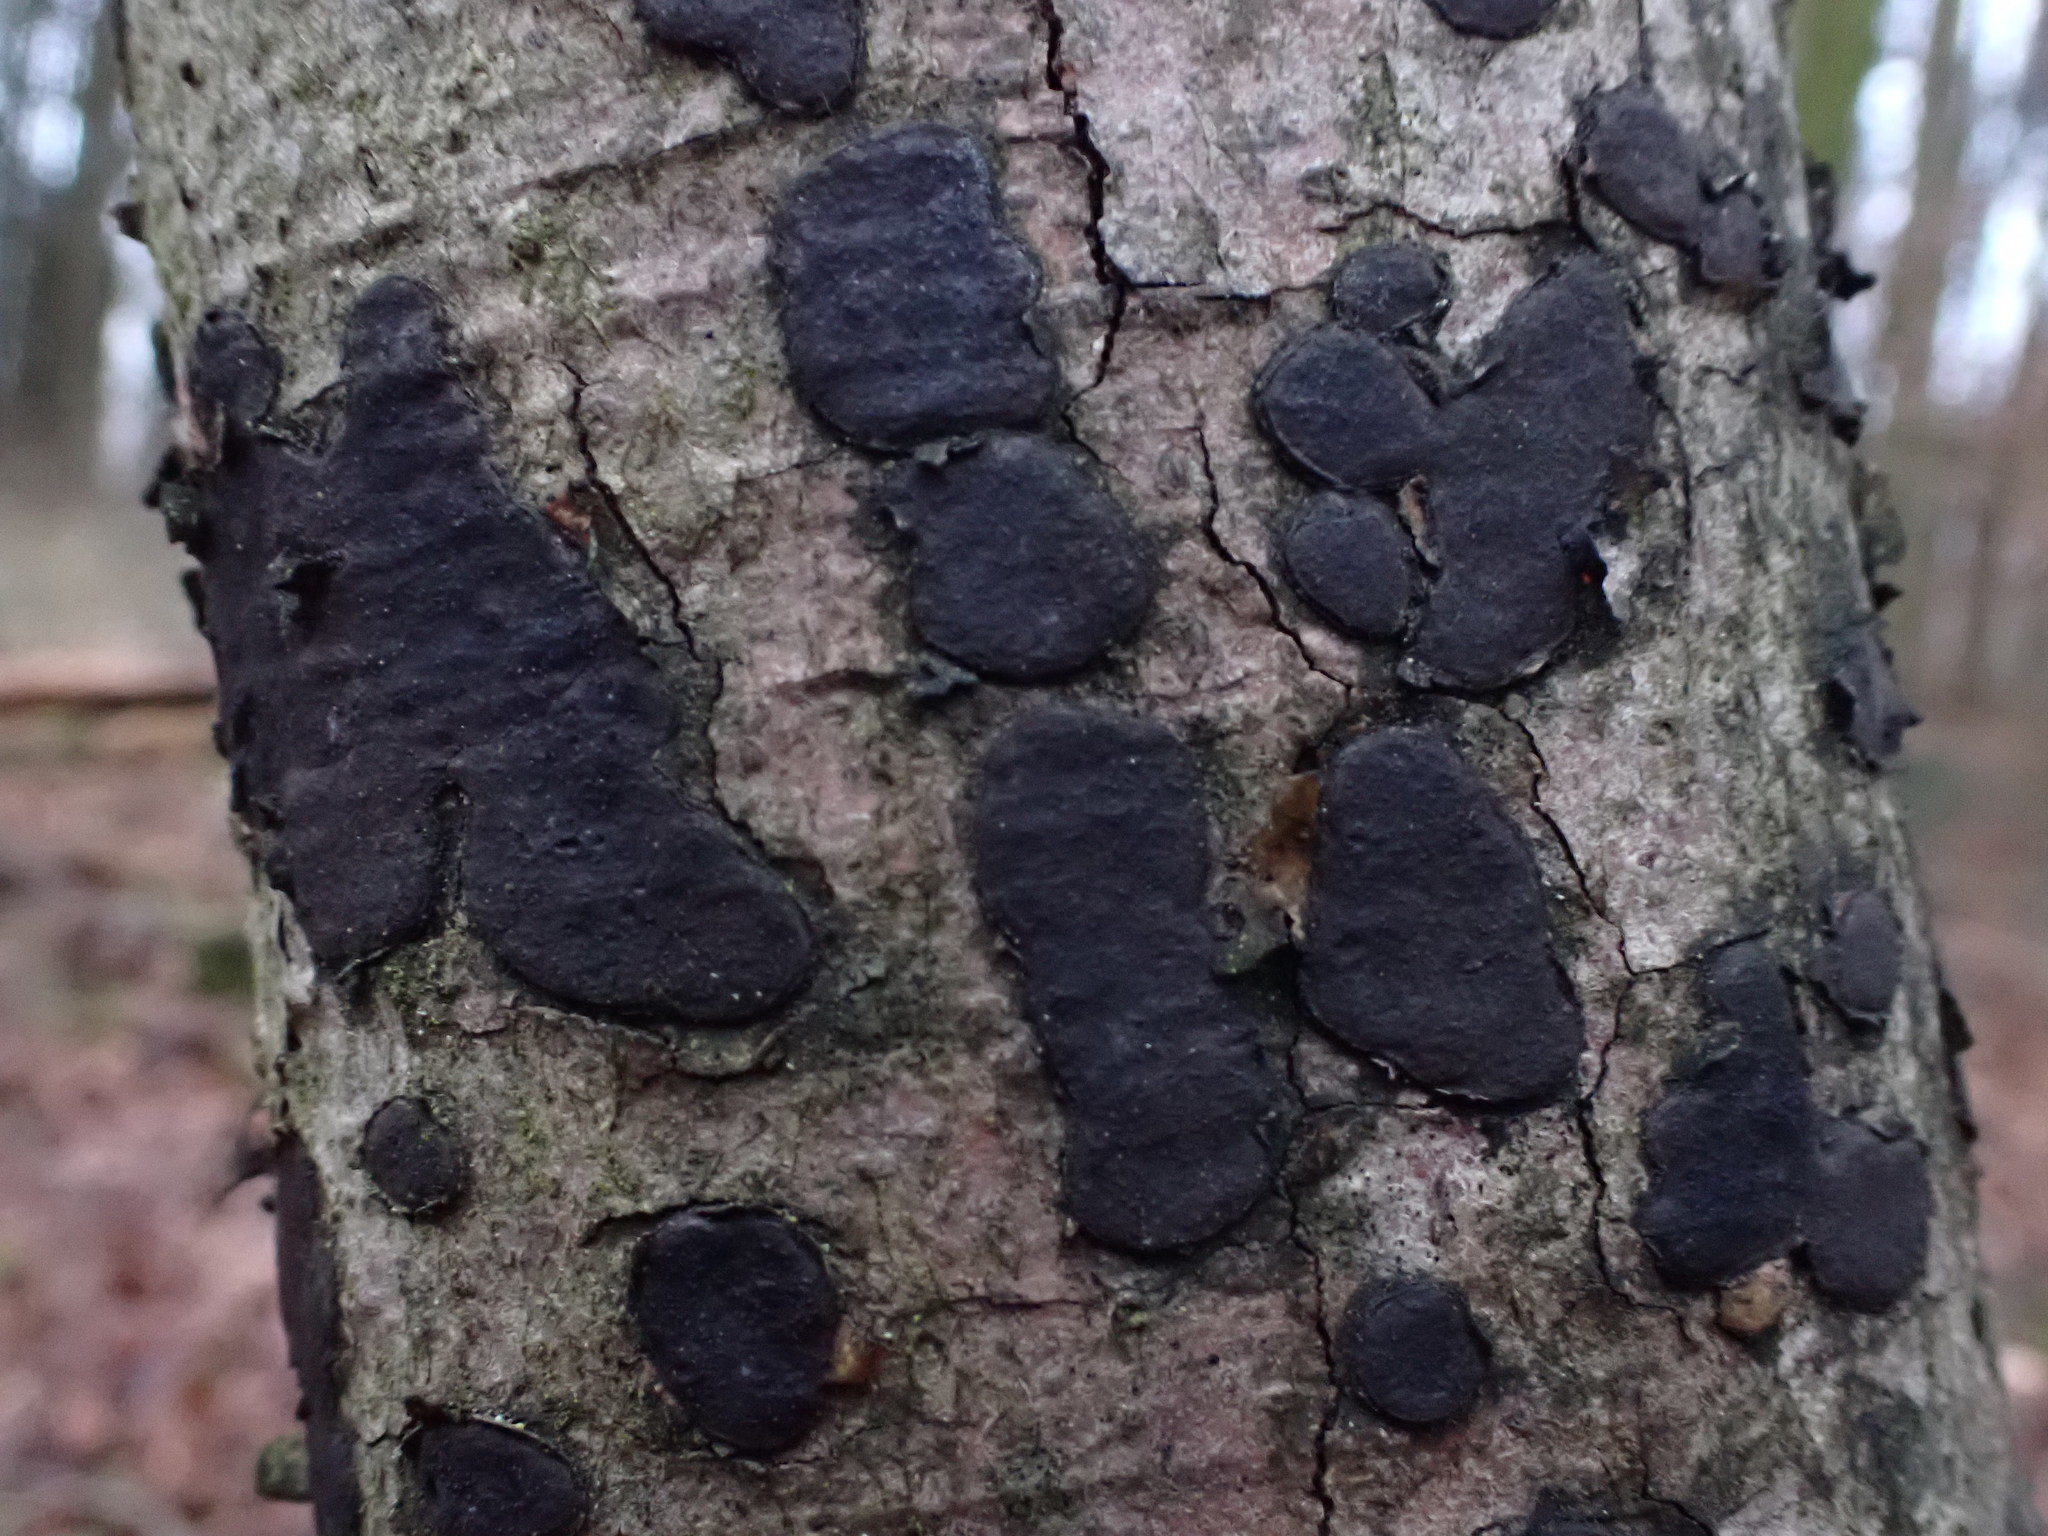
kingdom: Fungi
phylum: Ascomycota
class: Sordariomycetes
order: Xylariales
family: Graphostromataceae
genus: Biscogniauxia
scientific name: Biscogniauxia nummularia
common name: Beech tarcrust
